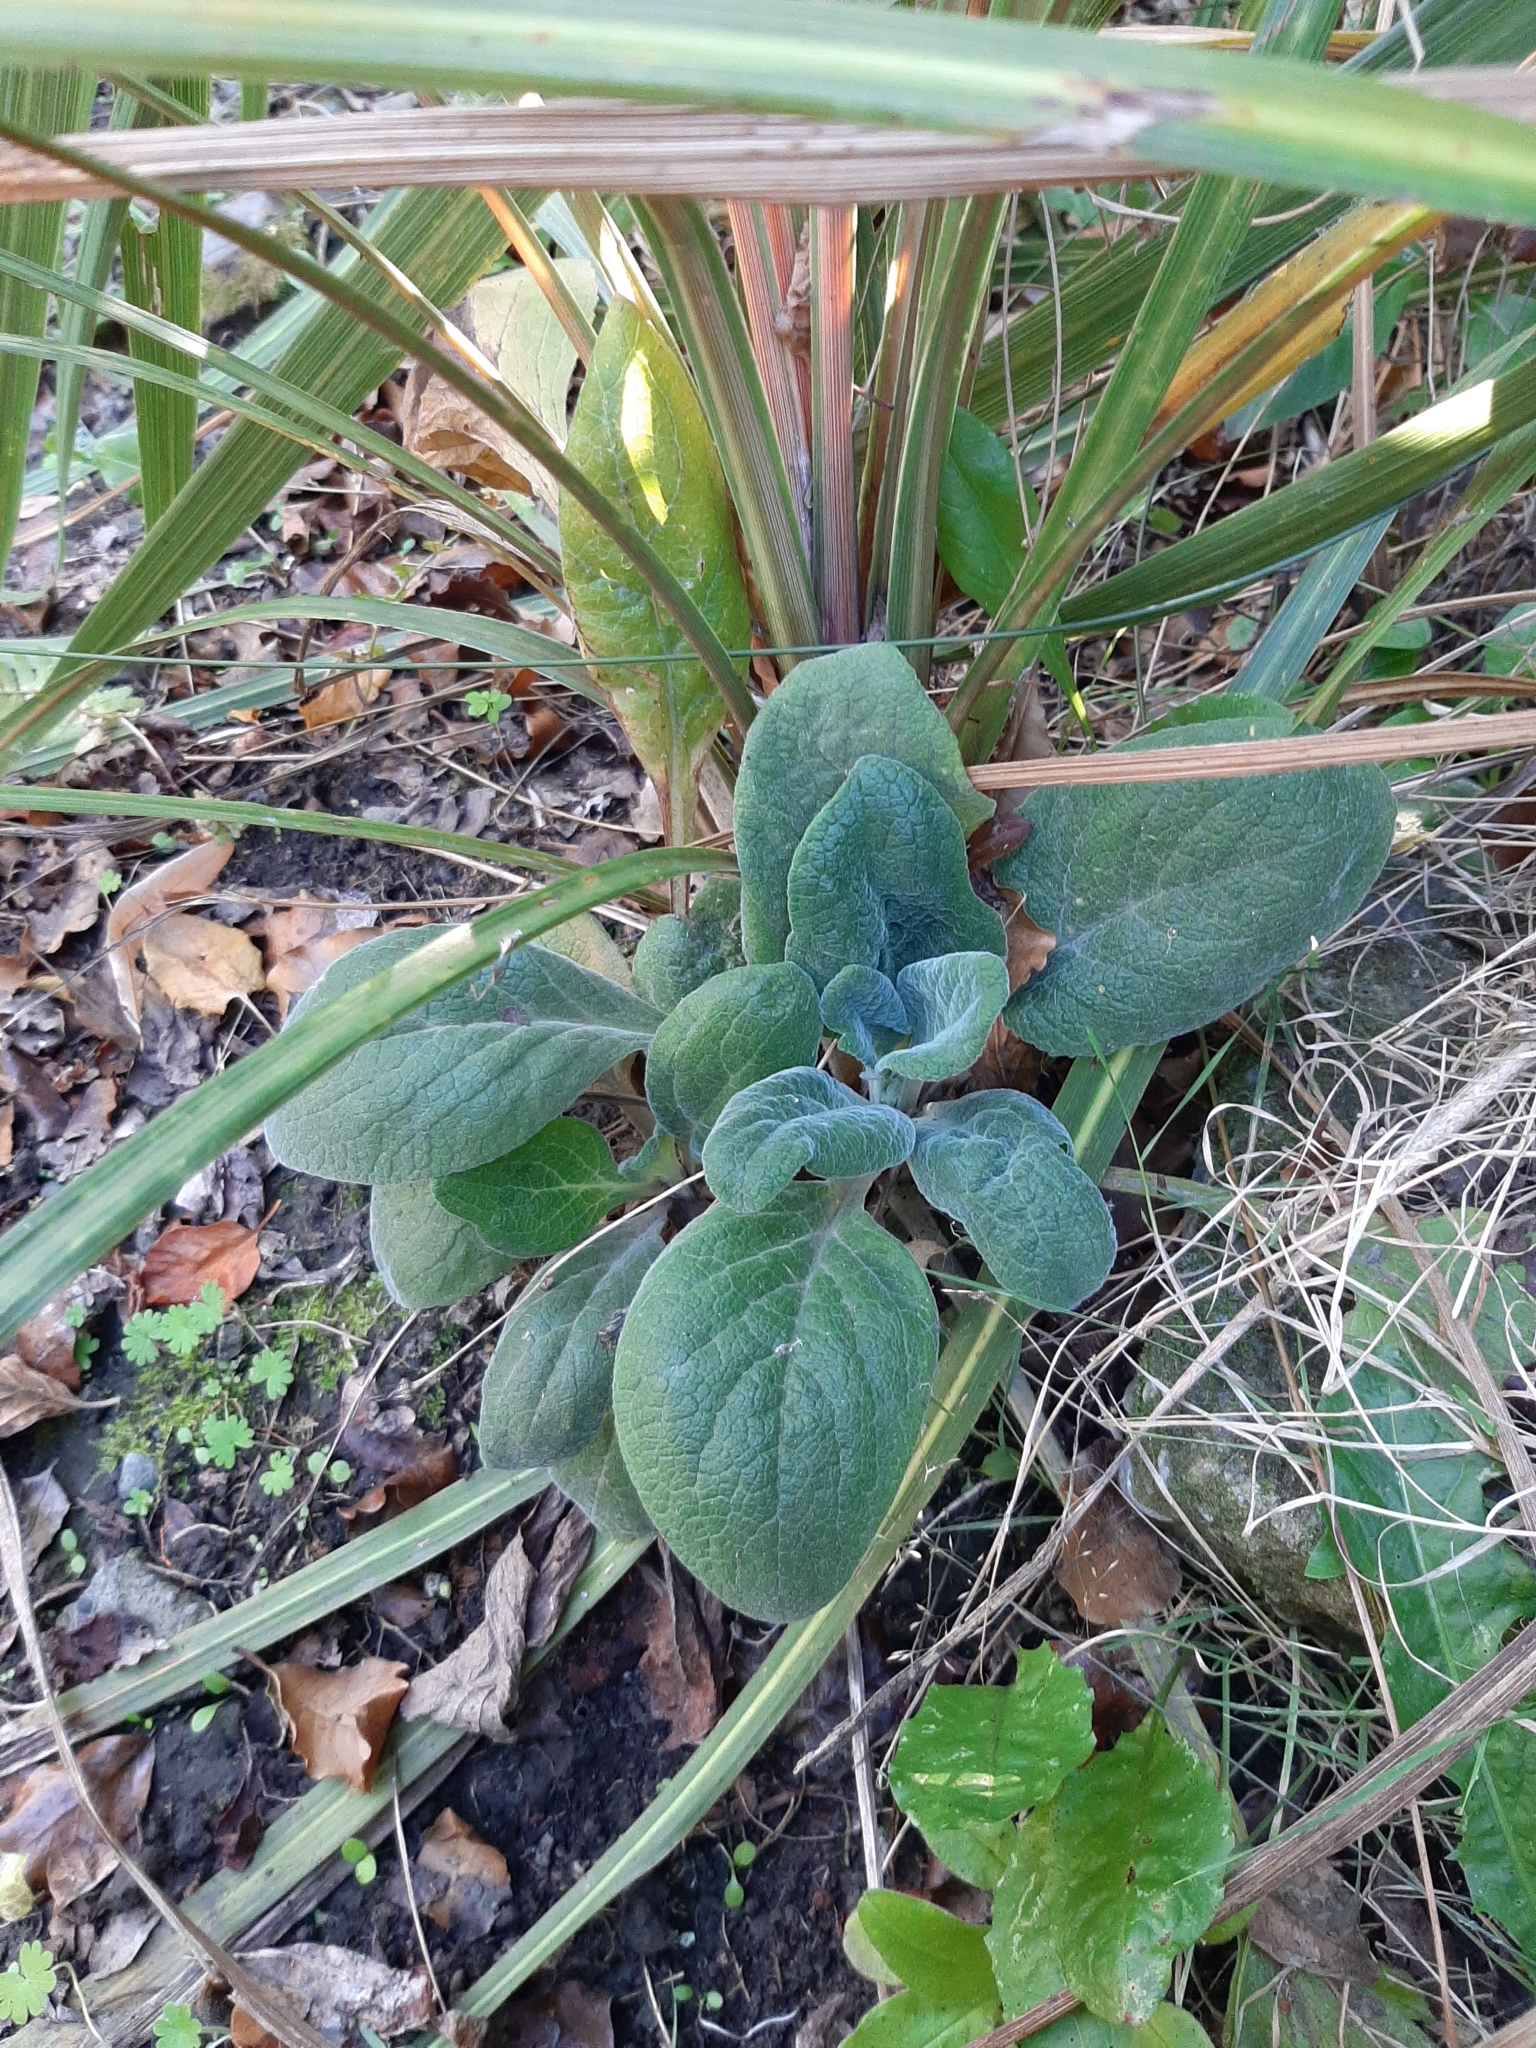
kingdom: Plantae
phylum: Tracheophyta
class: Magnoliopsida
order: Lamiales
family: Plantaginaceae
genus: Digitalis
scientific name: Digitalis purpurea
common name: Foxglove
